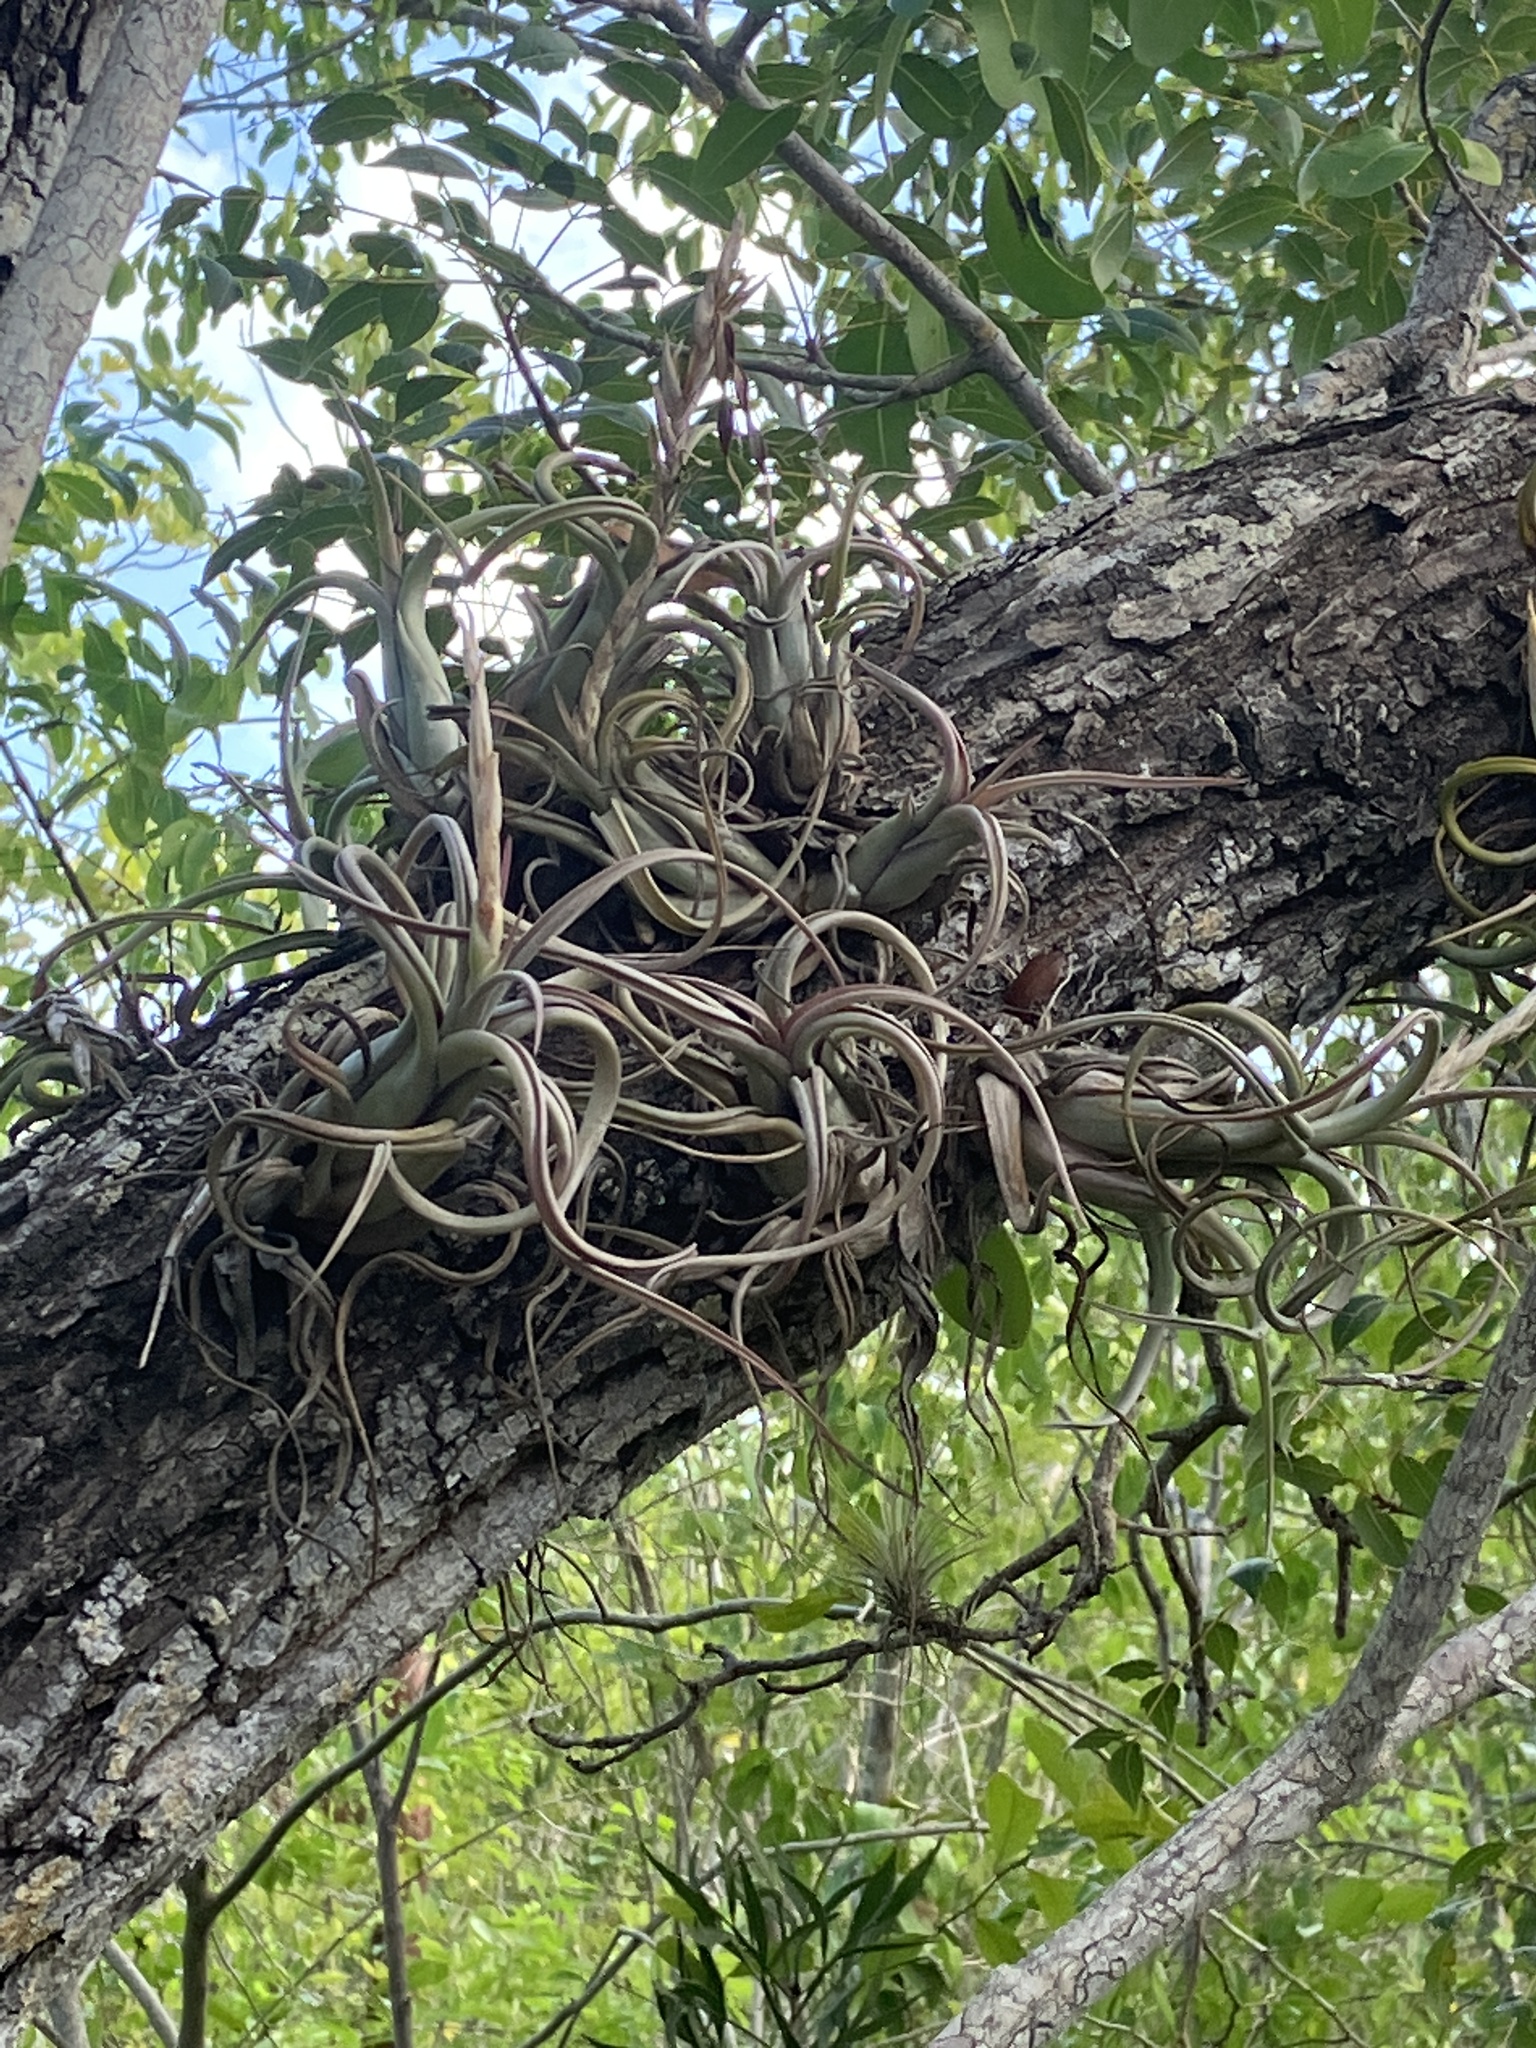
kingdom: Plantae
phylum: Tracheophyta
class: Liliopsida
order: Poales
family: Bromeliaceae
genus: Tillandsia
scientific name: Tillandsia paucifolia
